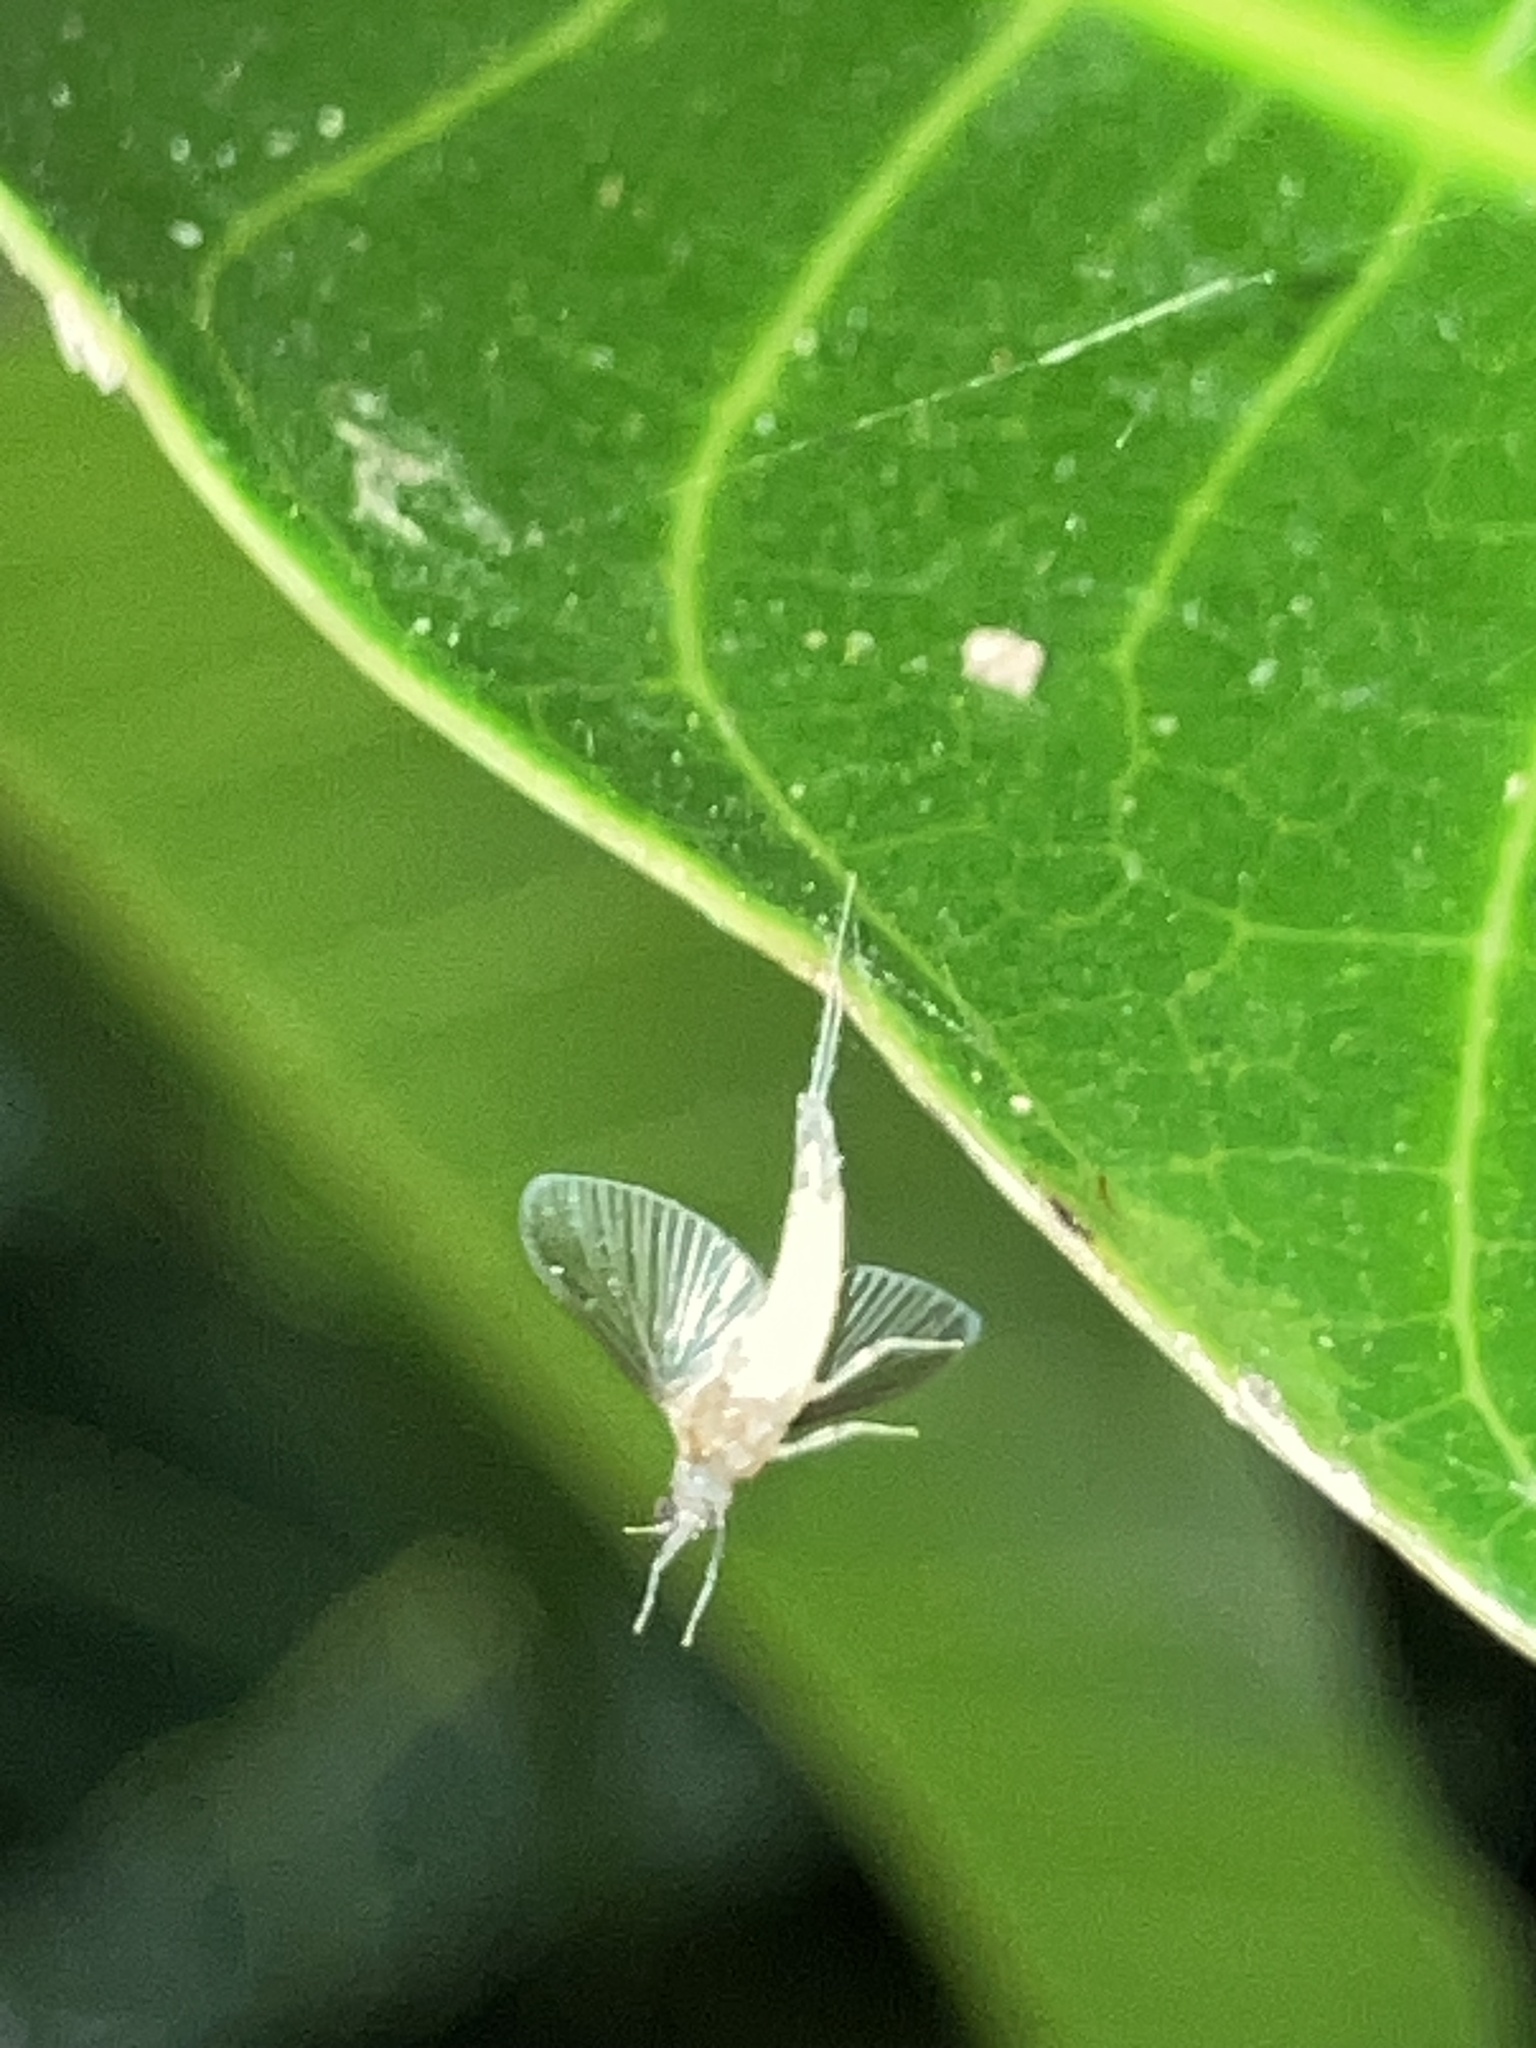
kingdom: Animalia
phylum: Arthropoda
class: Insecta
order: Ephemeroptera
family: Caenidae
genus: Caenis
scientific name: Caenis
